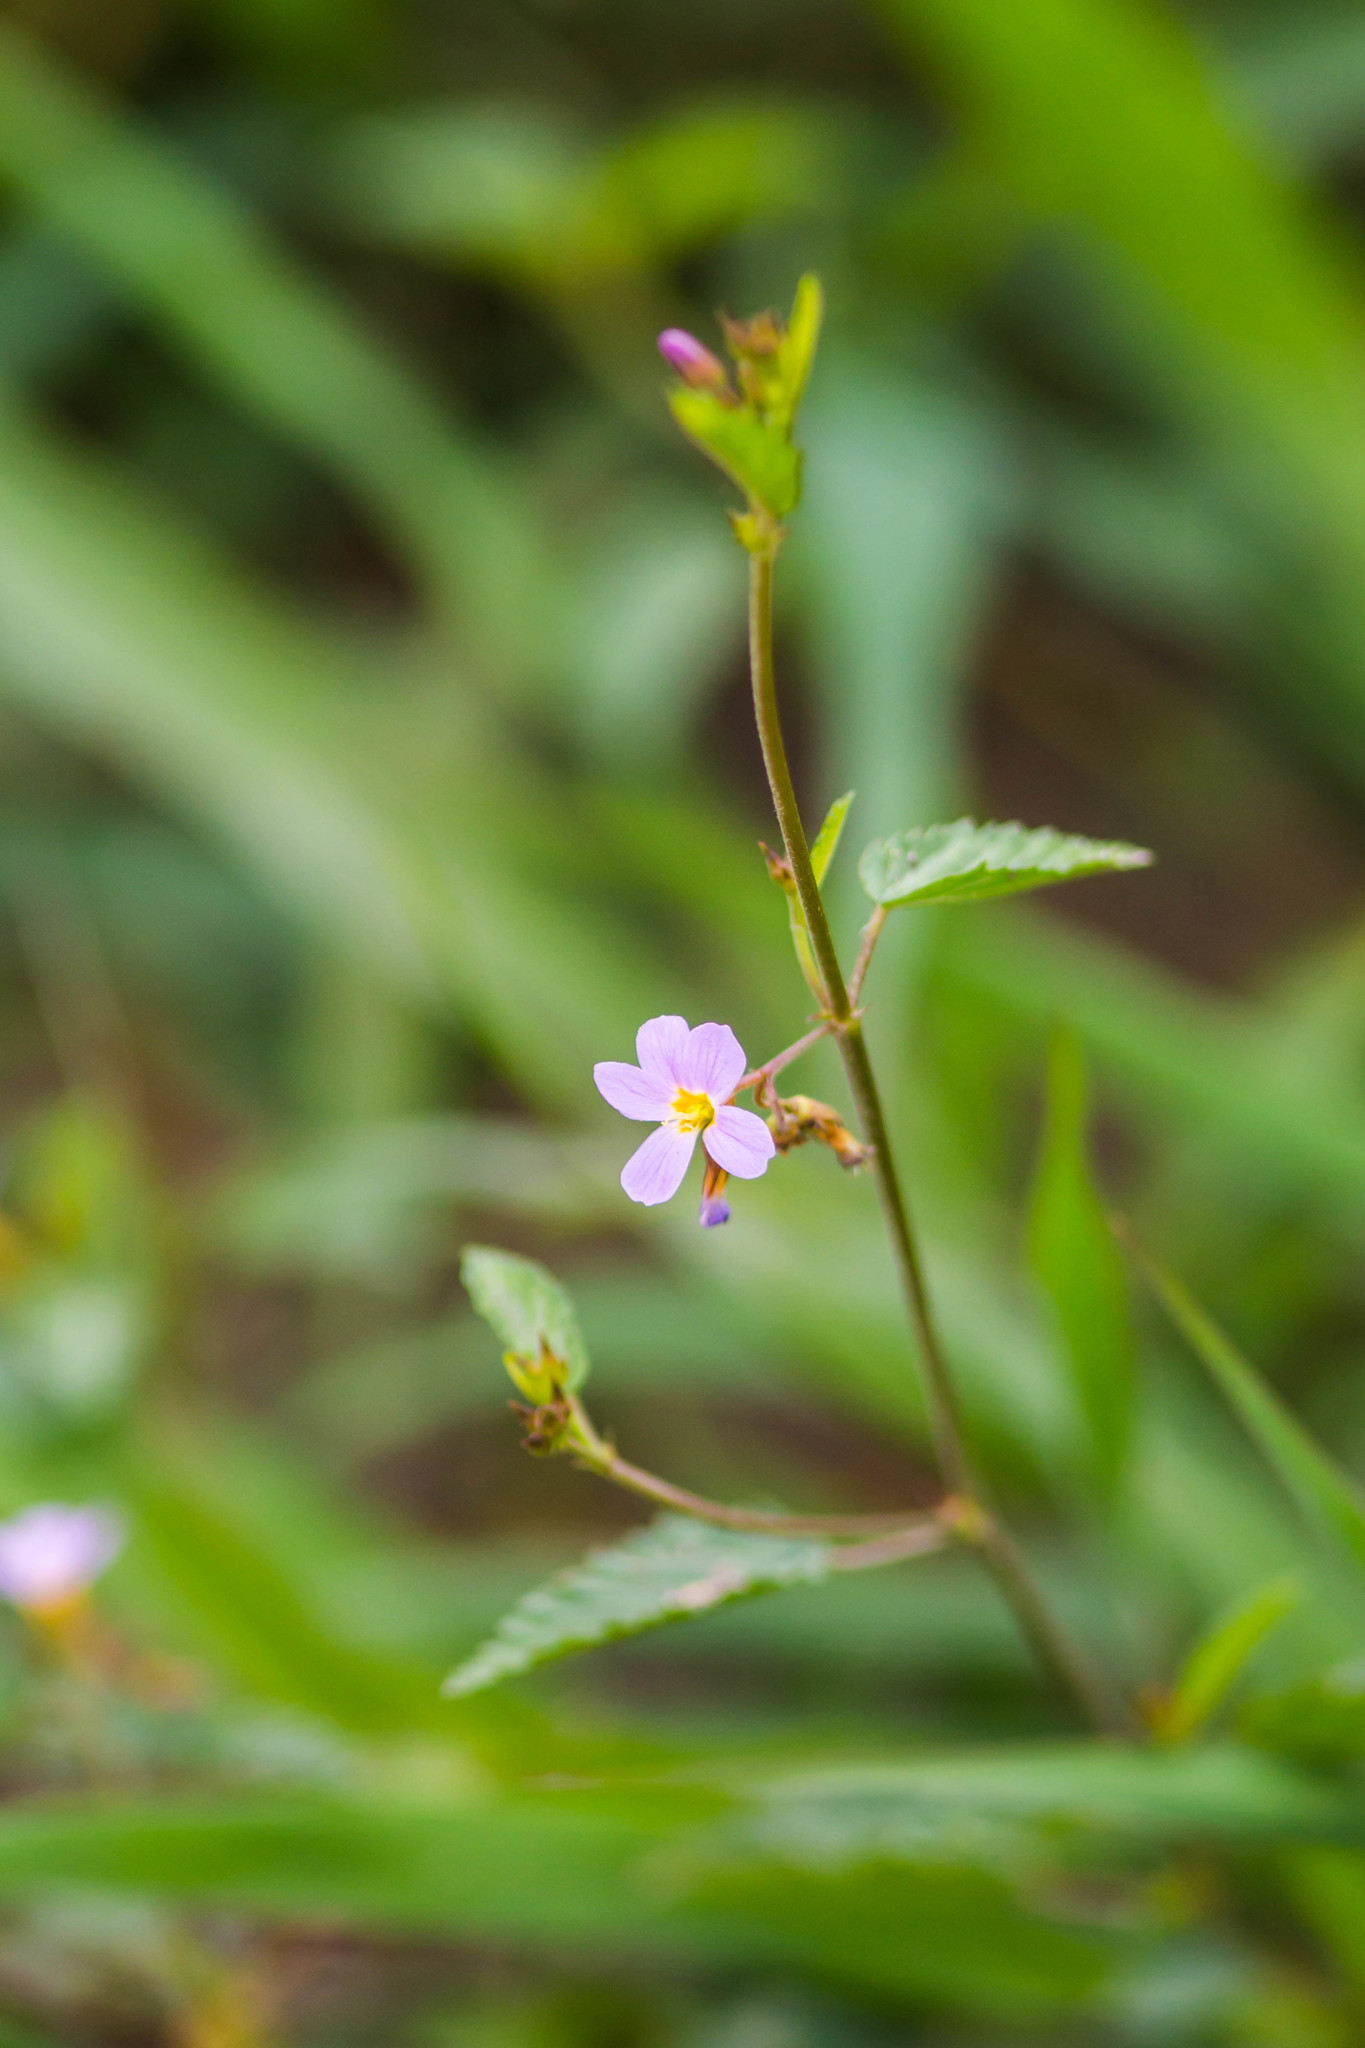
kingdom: Plantae
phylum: Tracheophyta
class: Magnoliopsida
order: Malvales
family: Malvaceae
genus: Melochia
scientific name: Melochia pyramidata
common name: Pyramidflower
